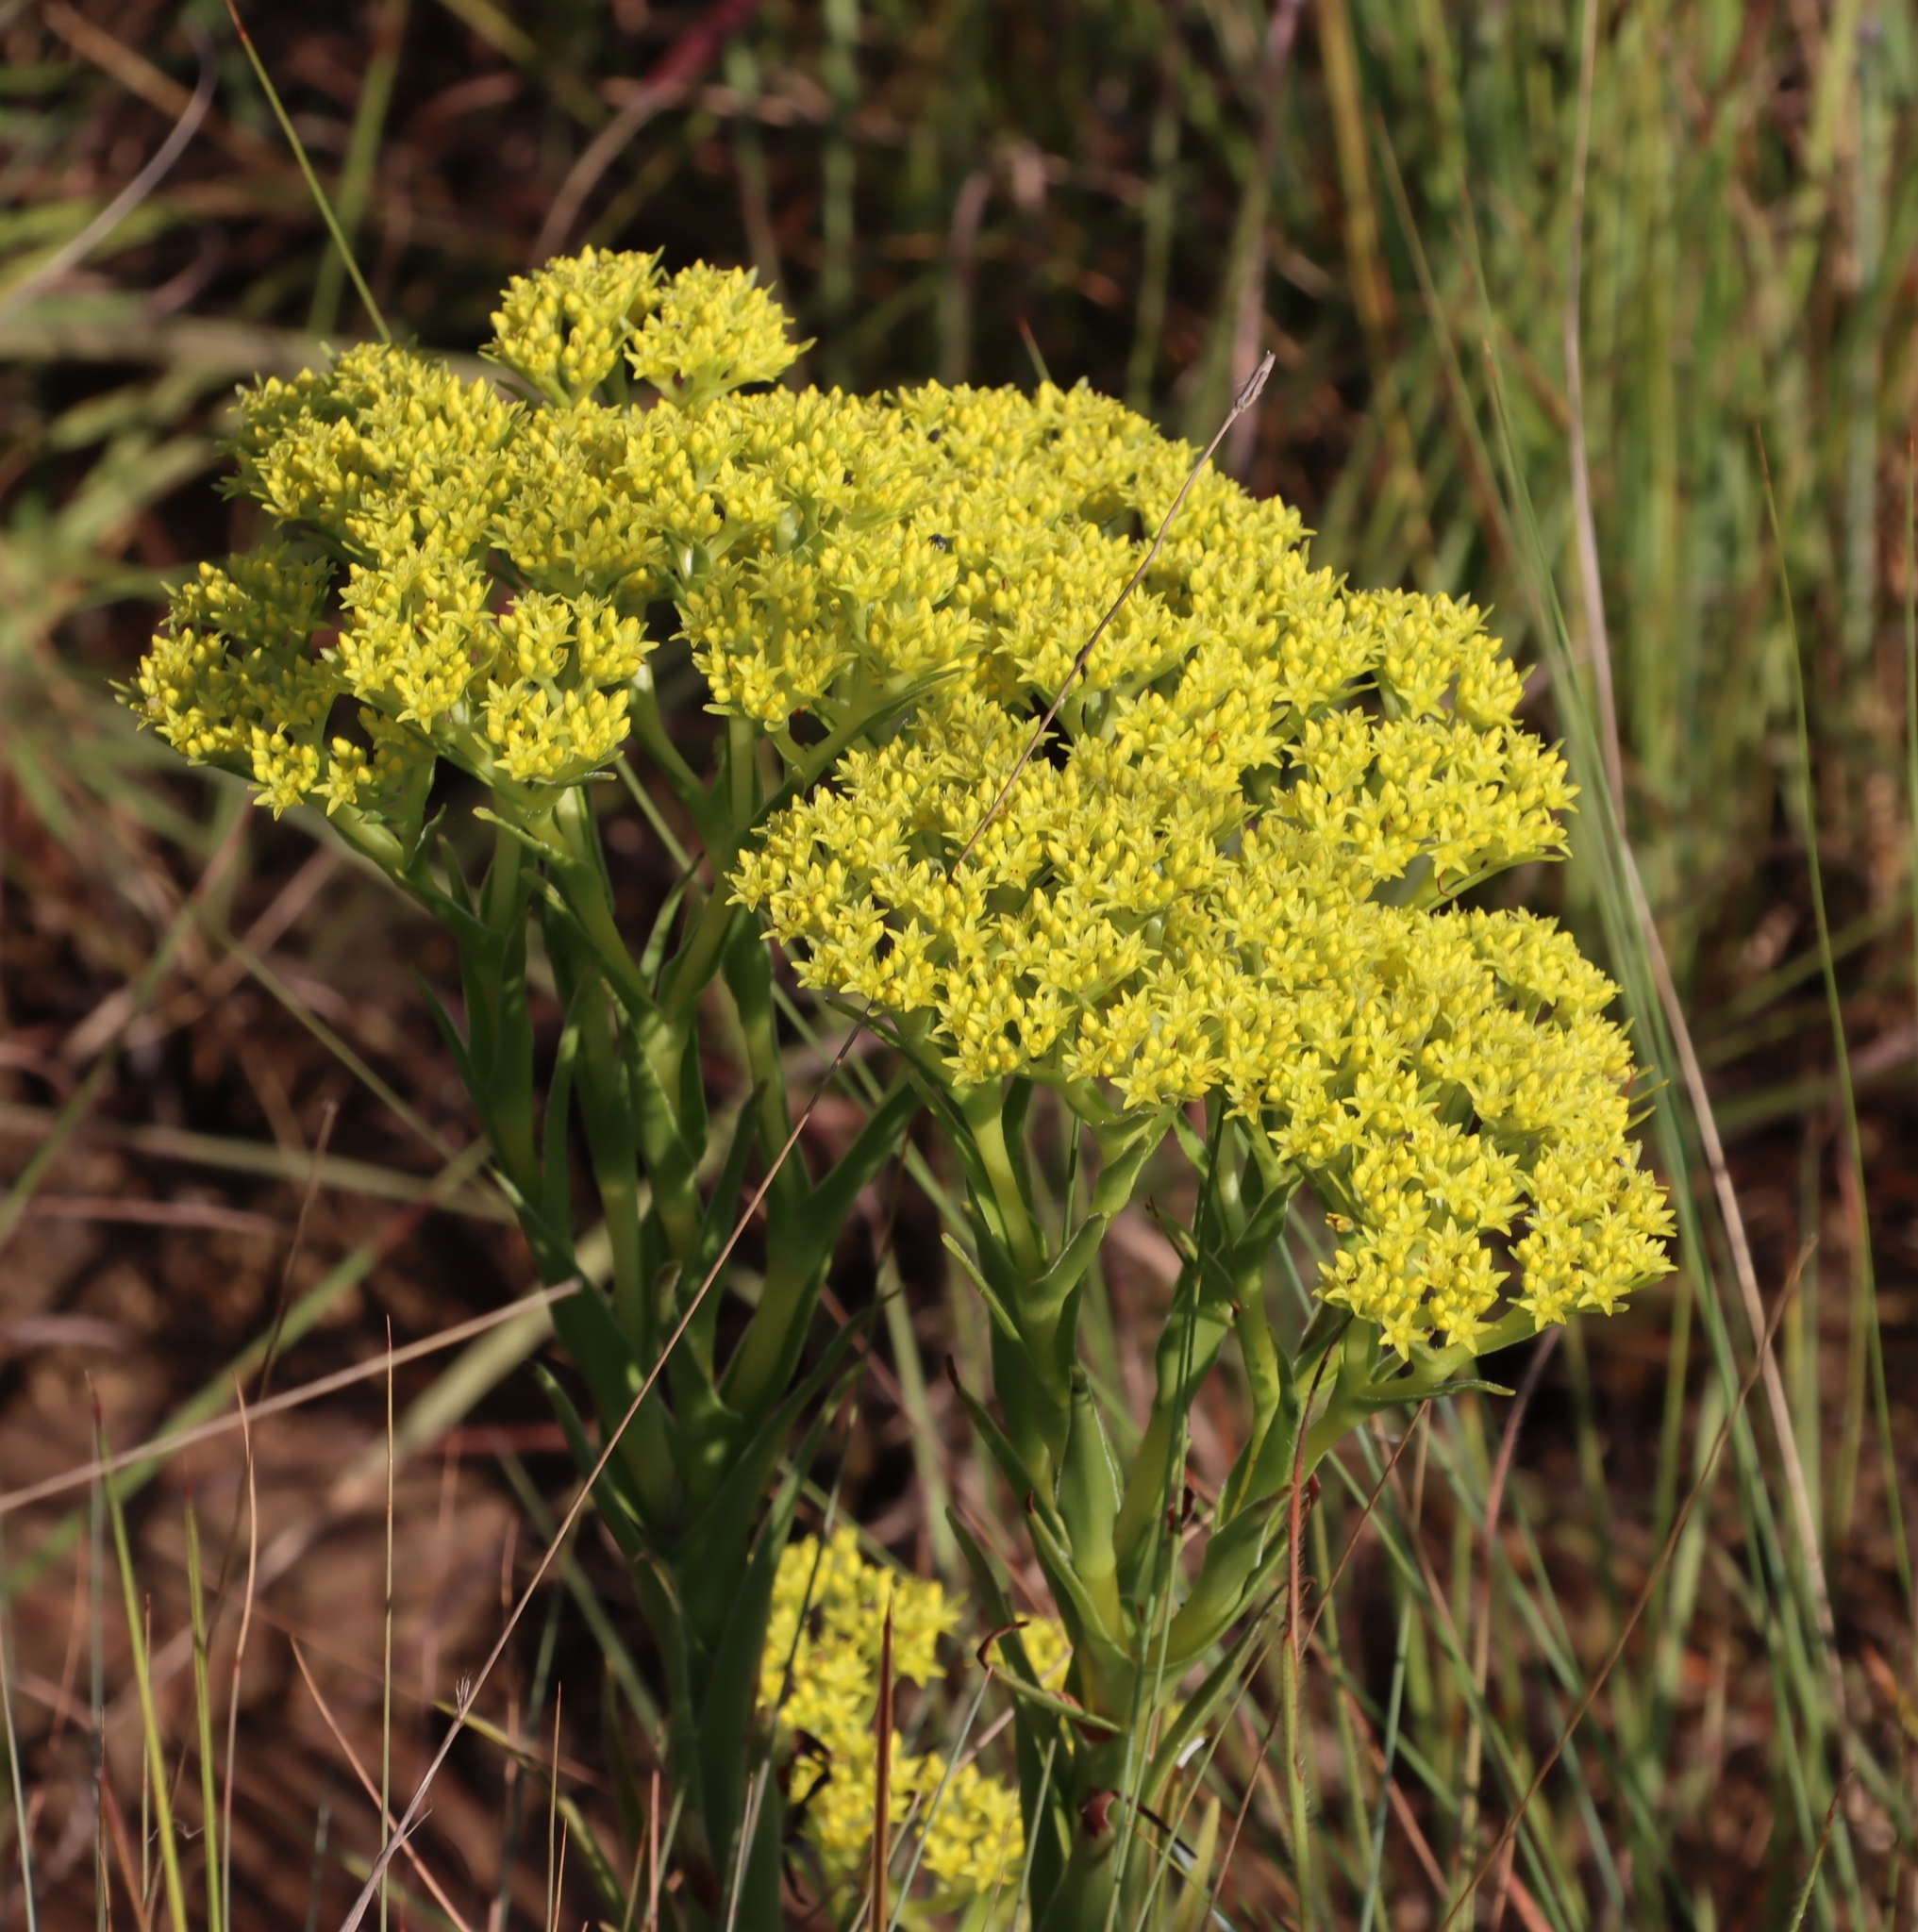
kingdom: Plantae
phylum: Tracheophyta
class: Magnoliopsida
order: Saxifragales
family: Crassulaceae
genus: Crassula
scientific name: Crassula vaginata
